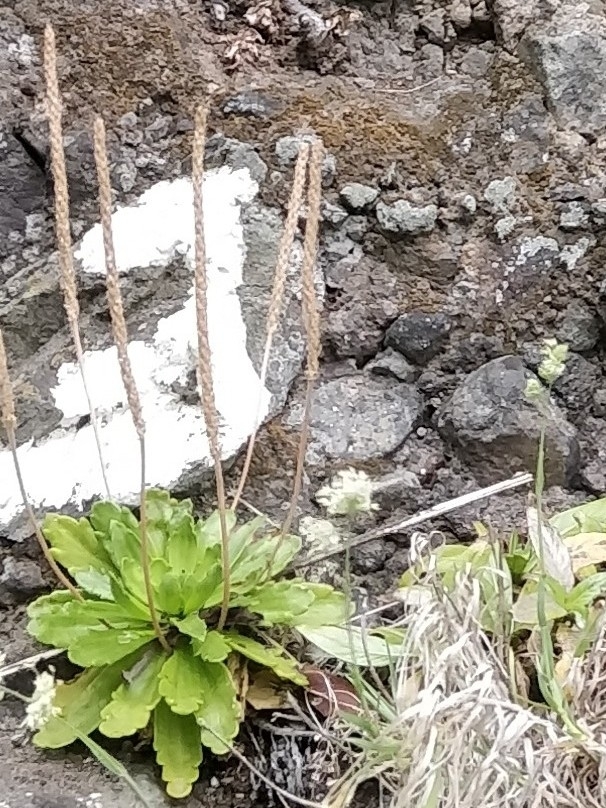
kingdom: Plantae
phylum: Tracheophyta
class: Magnoliopsida
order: Lamiales
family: Plantaginaceae
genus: Plantago
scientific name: Plantago coronopus
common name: Buck's-horn plantain
